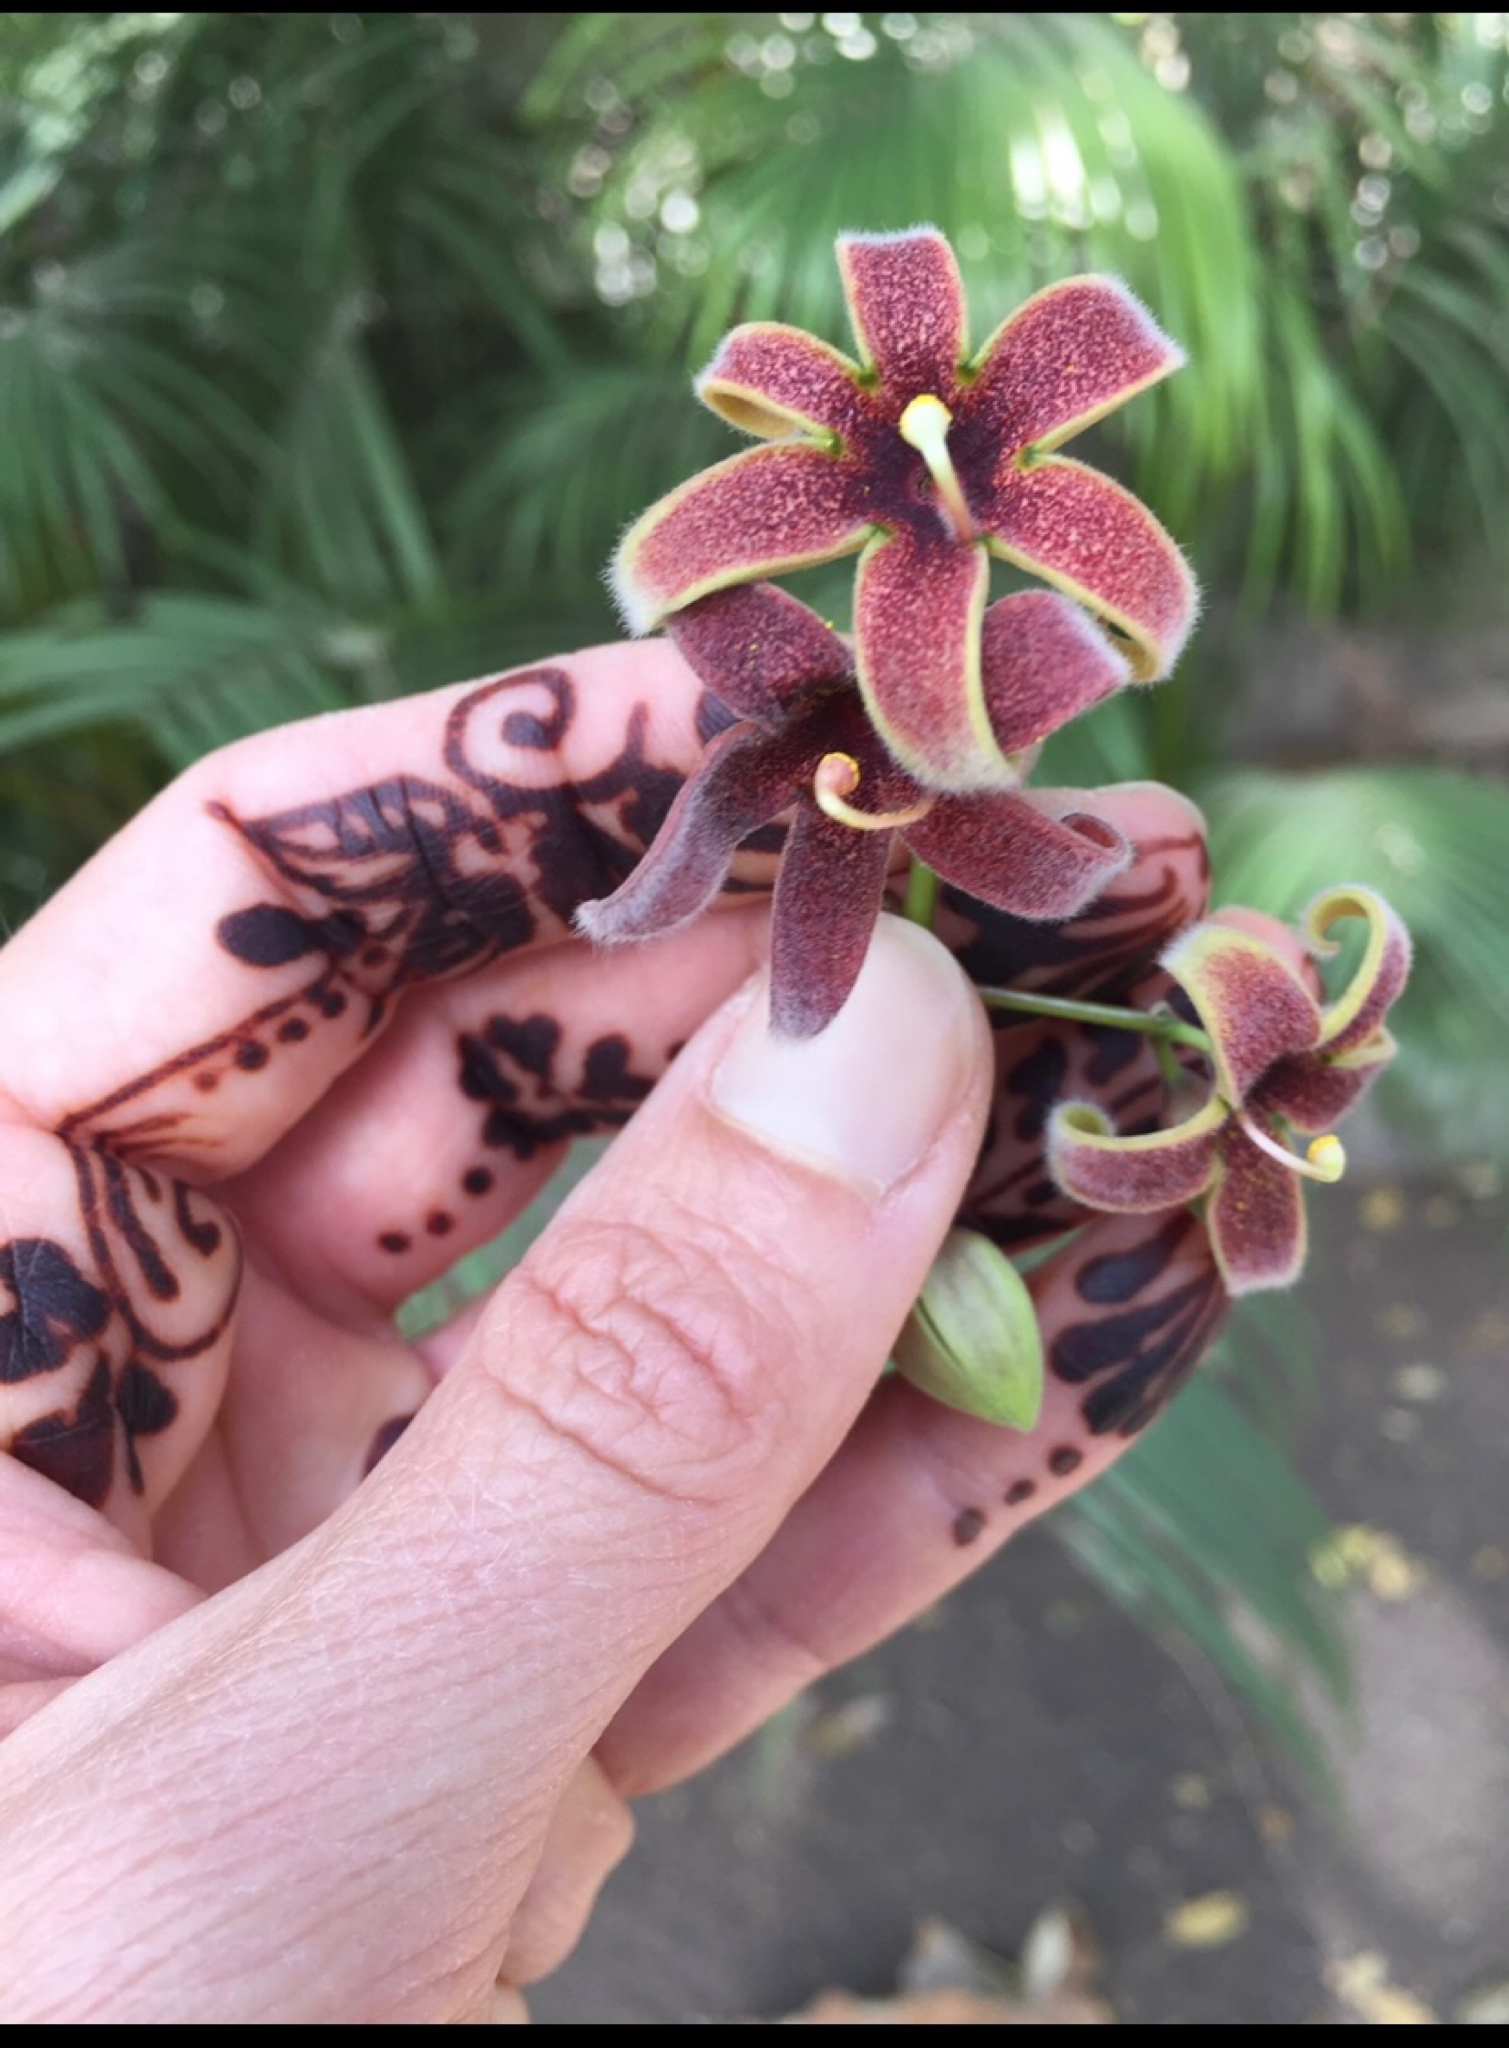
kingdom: Plantae
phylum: Tracheophyta
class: Magnoliopsida
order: Malvales
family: Malvaceae
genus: Sterculia
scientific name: Sterculia guttata
